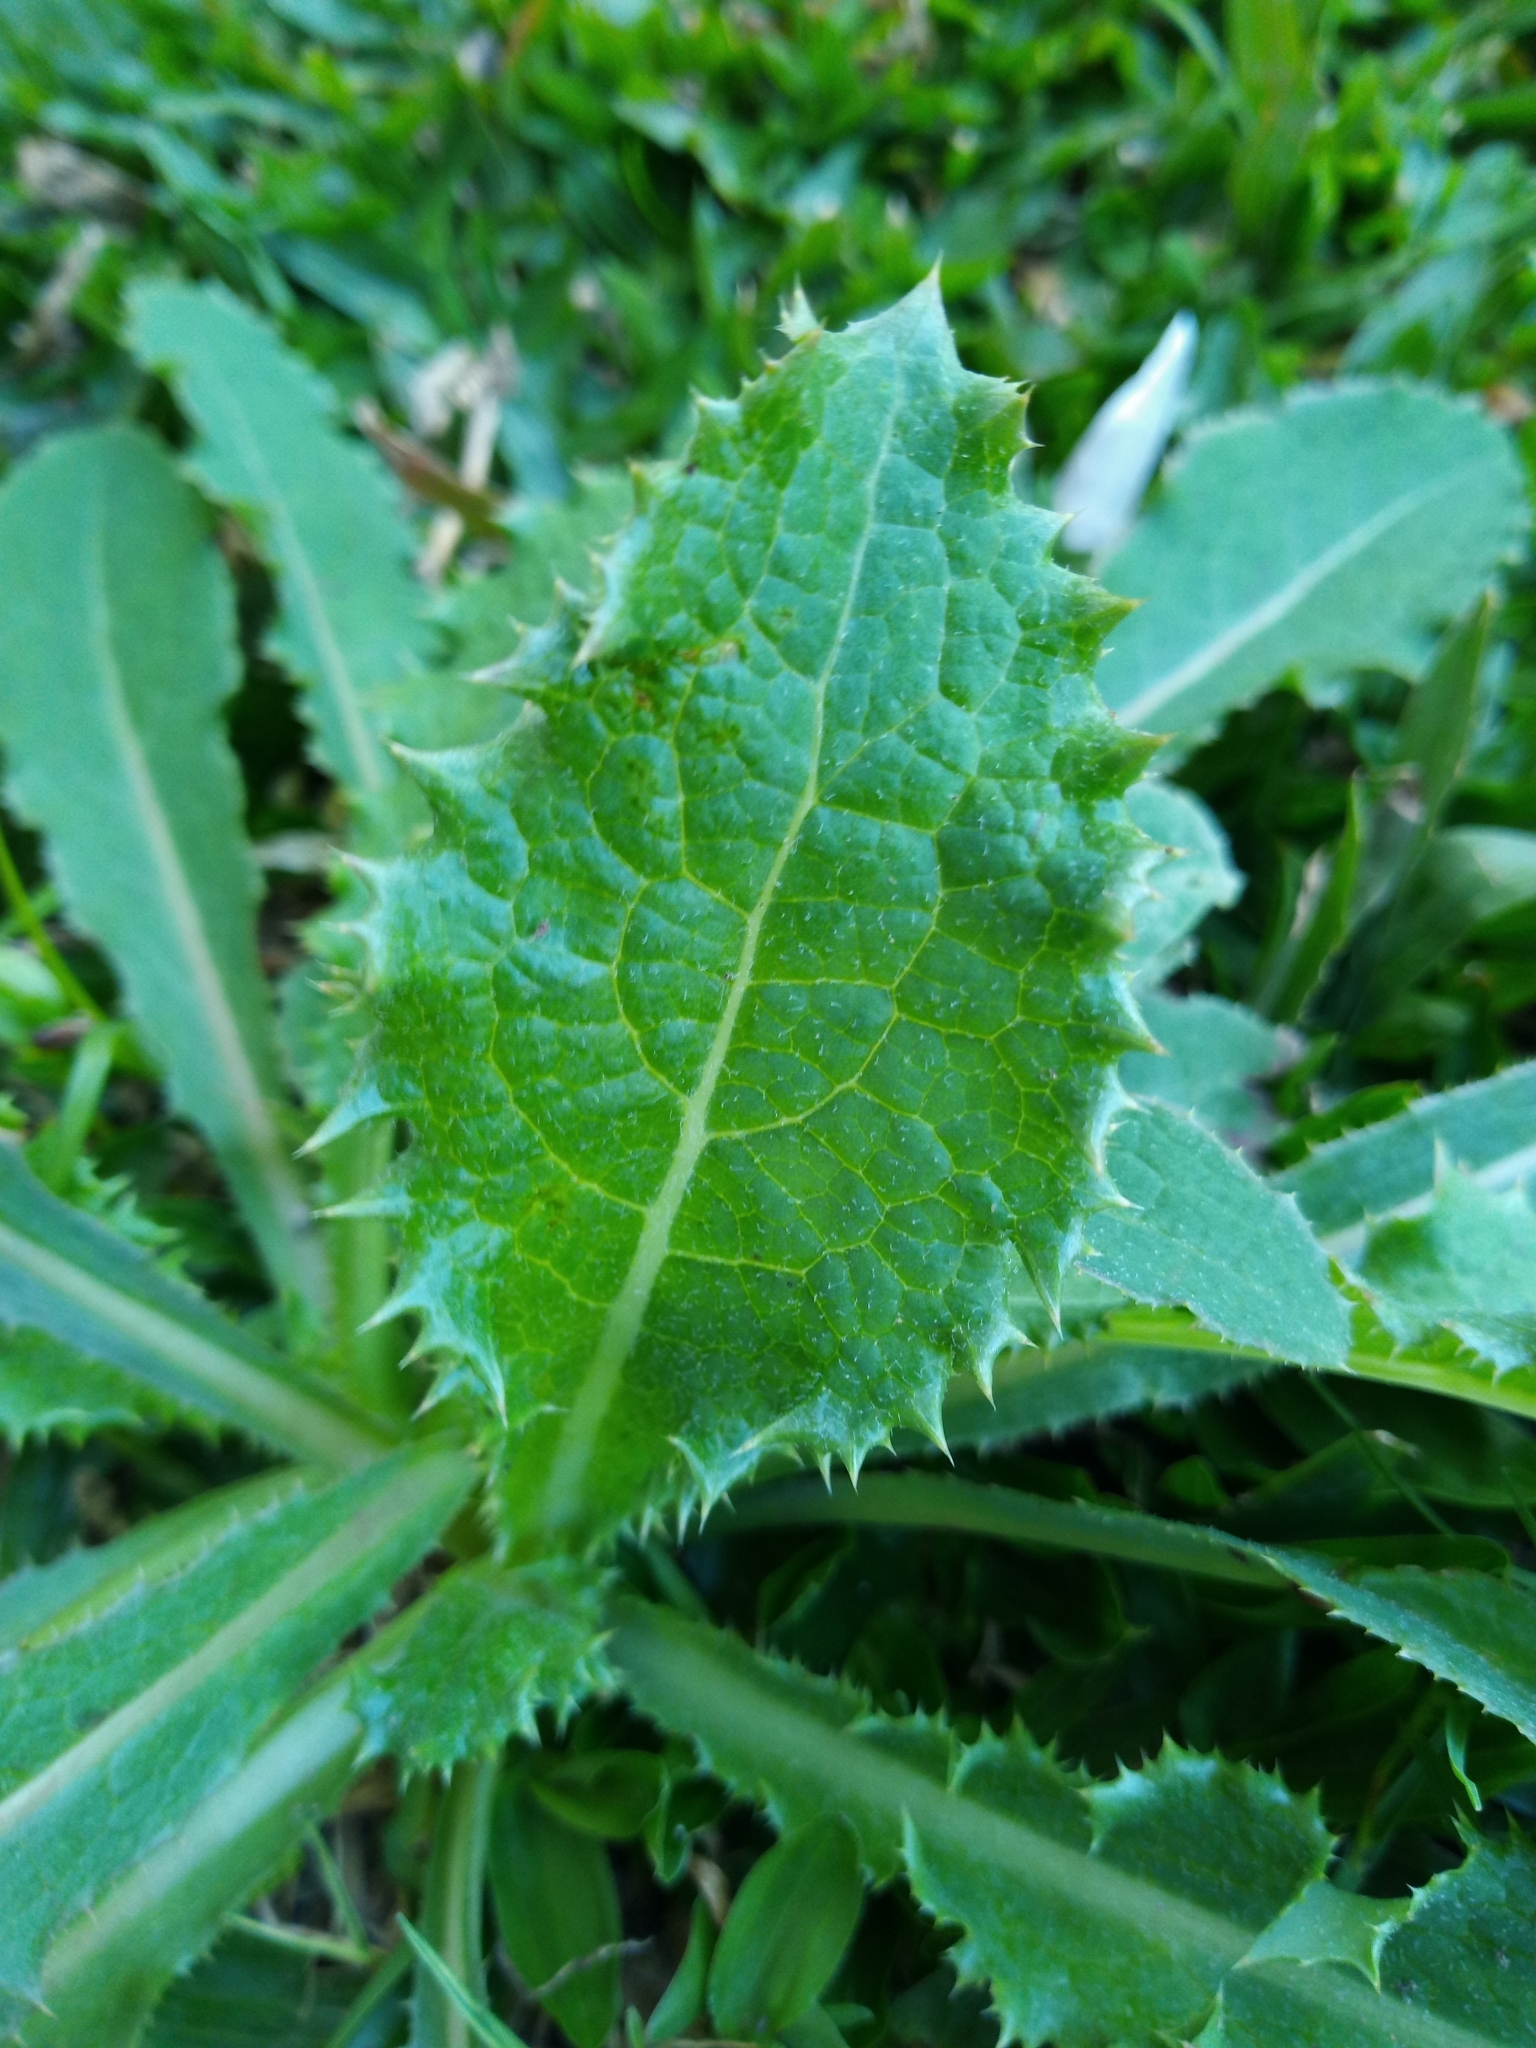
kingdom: Plantae
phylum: Tracheophyta
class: Magnoliopsida
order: Asterales
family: Asteraceae
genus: Sonchus
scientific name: Sonchus asper
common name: Prickly sow-thistle
